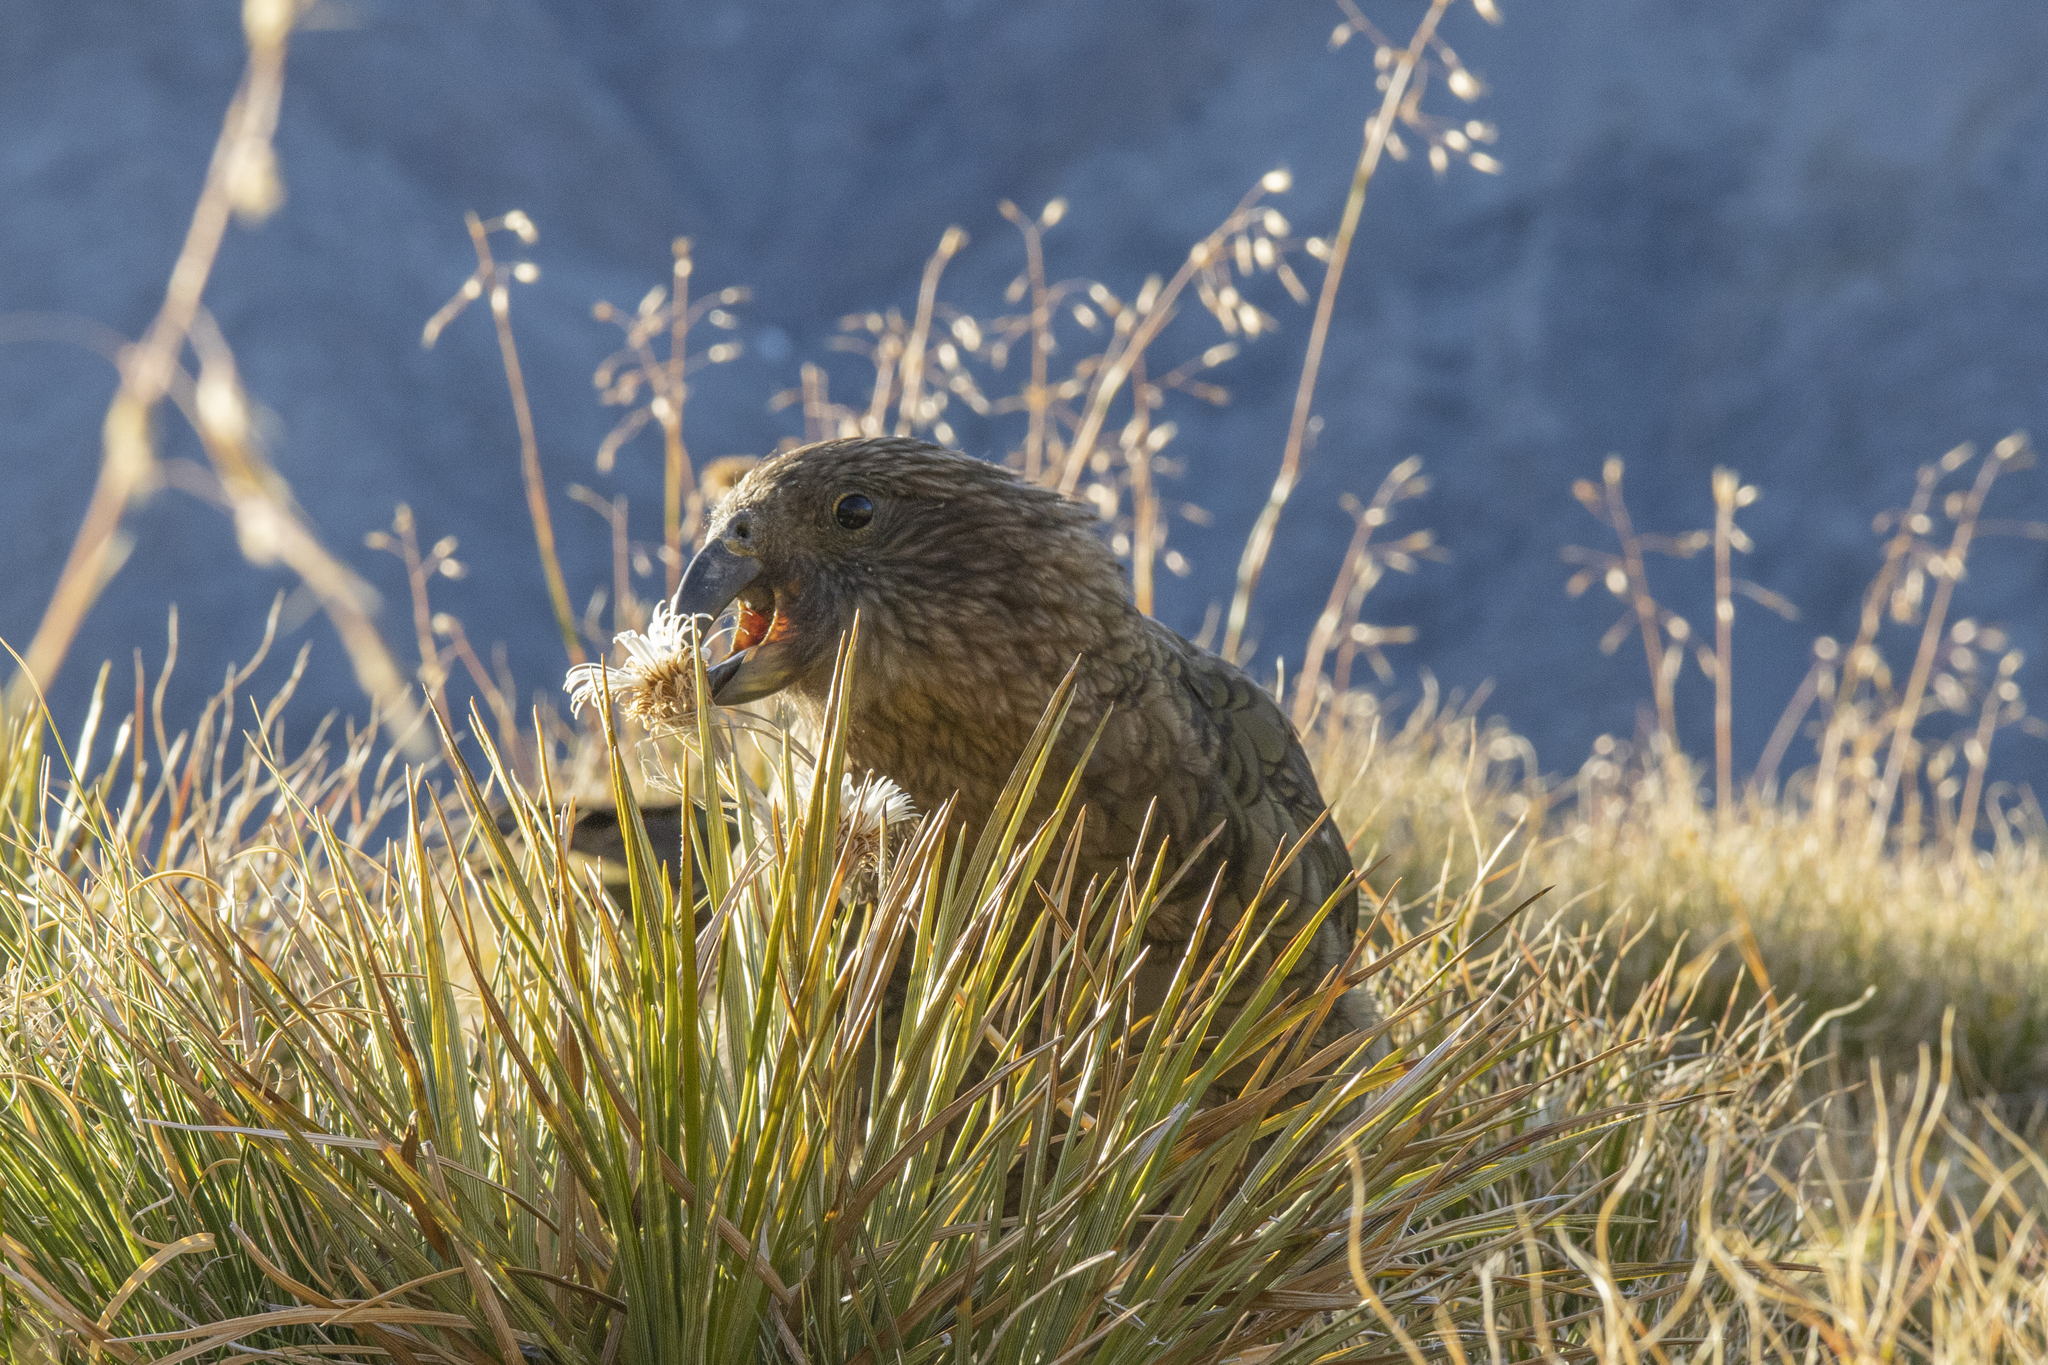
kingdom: Animalia
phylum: Chordata
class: Aves
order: Psittaciformes
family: Psittacidae
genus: Nestor
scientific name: Nestor notabilis
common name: Kea
